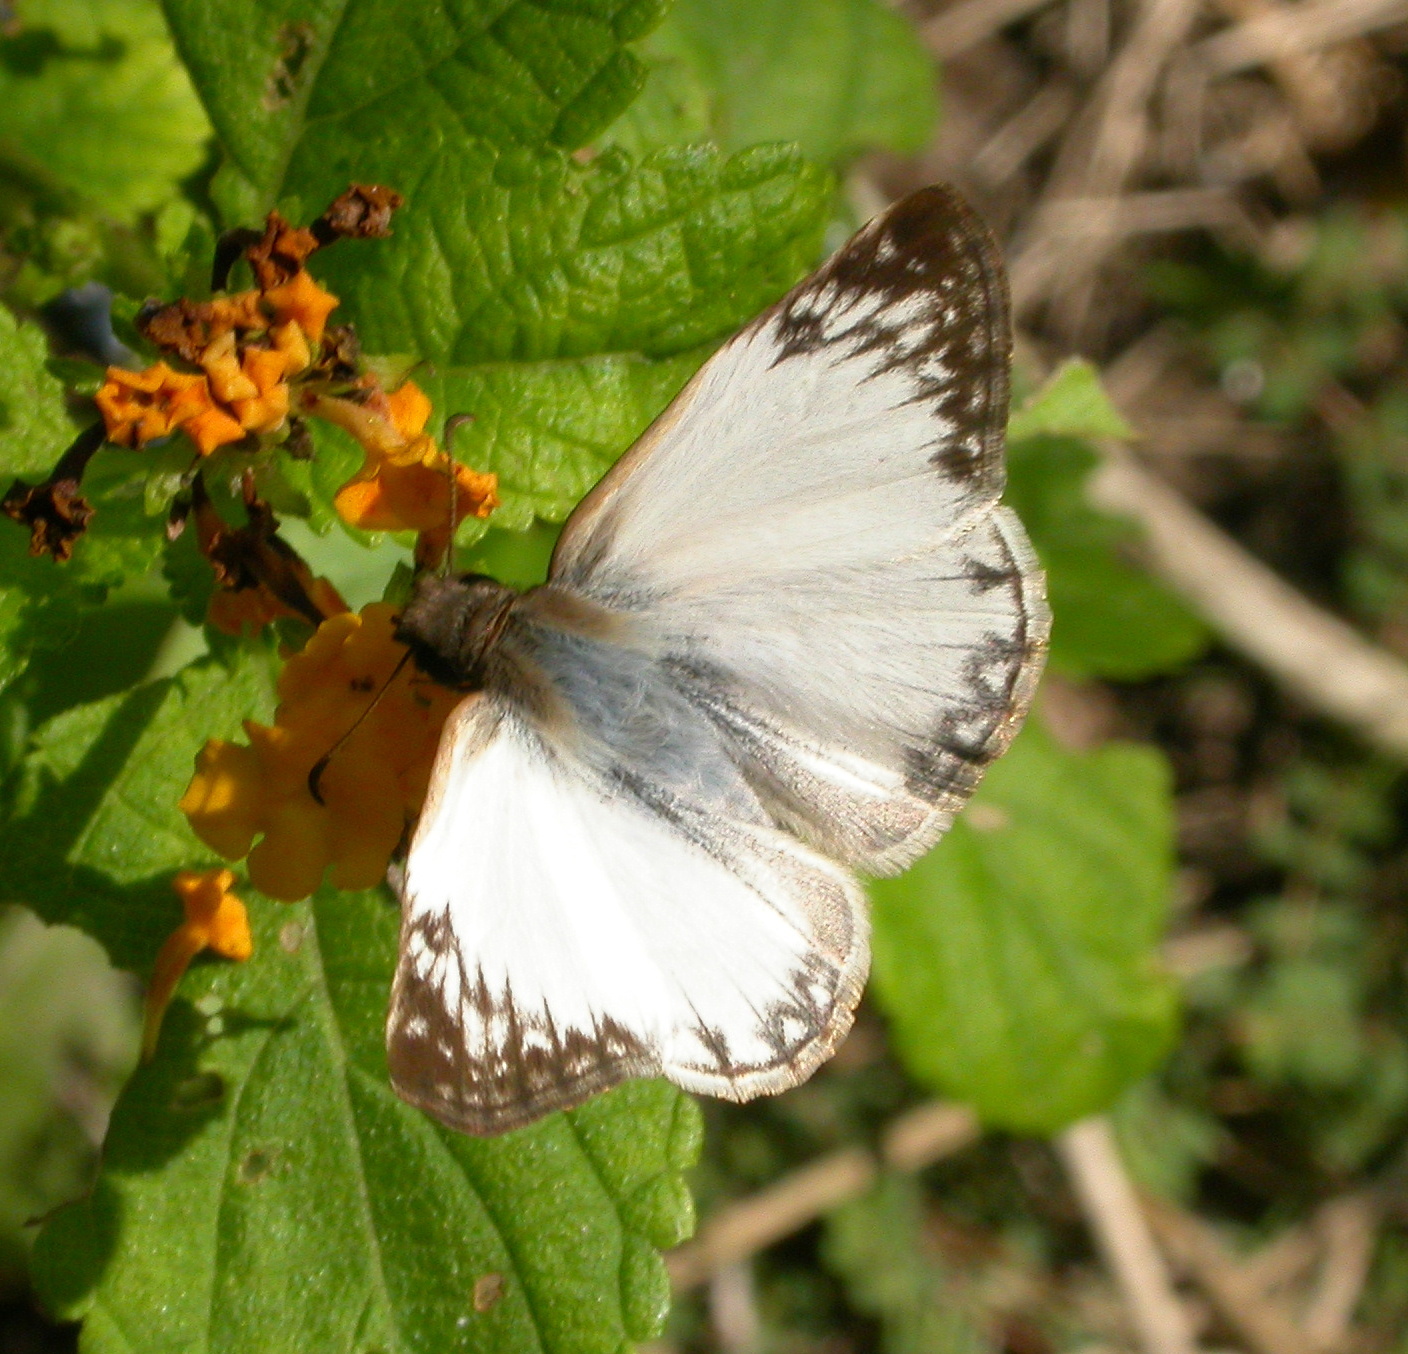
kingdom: Animalia
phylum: Arthropoda
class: Insecta
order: Lepidoptera
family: Hesperiidae
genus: Heliopetes
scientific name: Heliopetes laviana
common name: Laviana white-skipper
